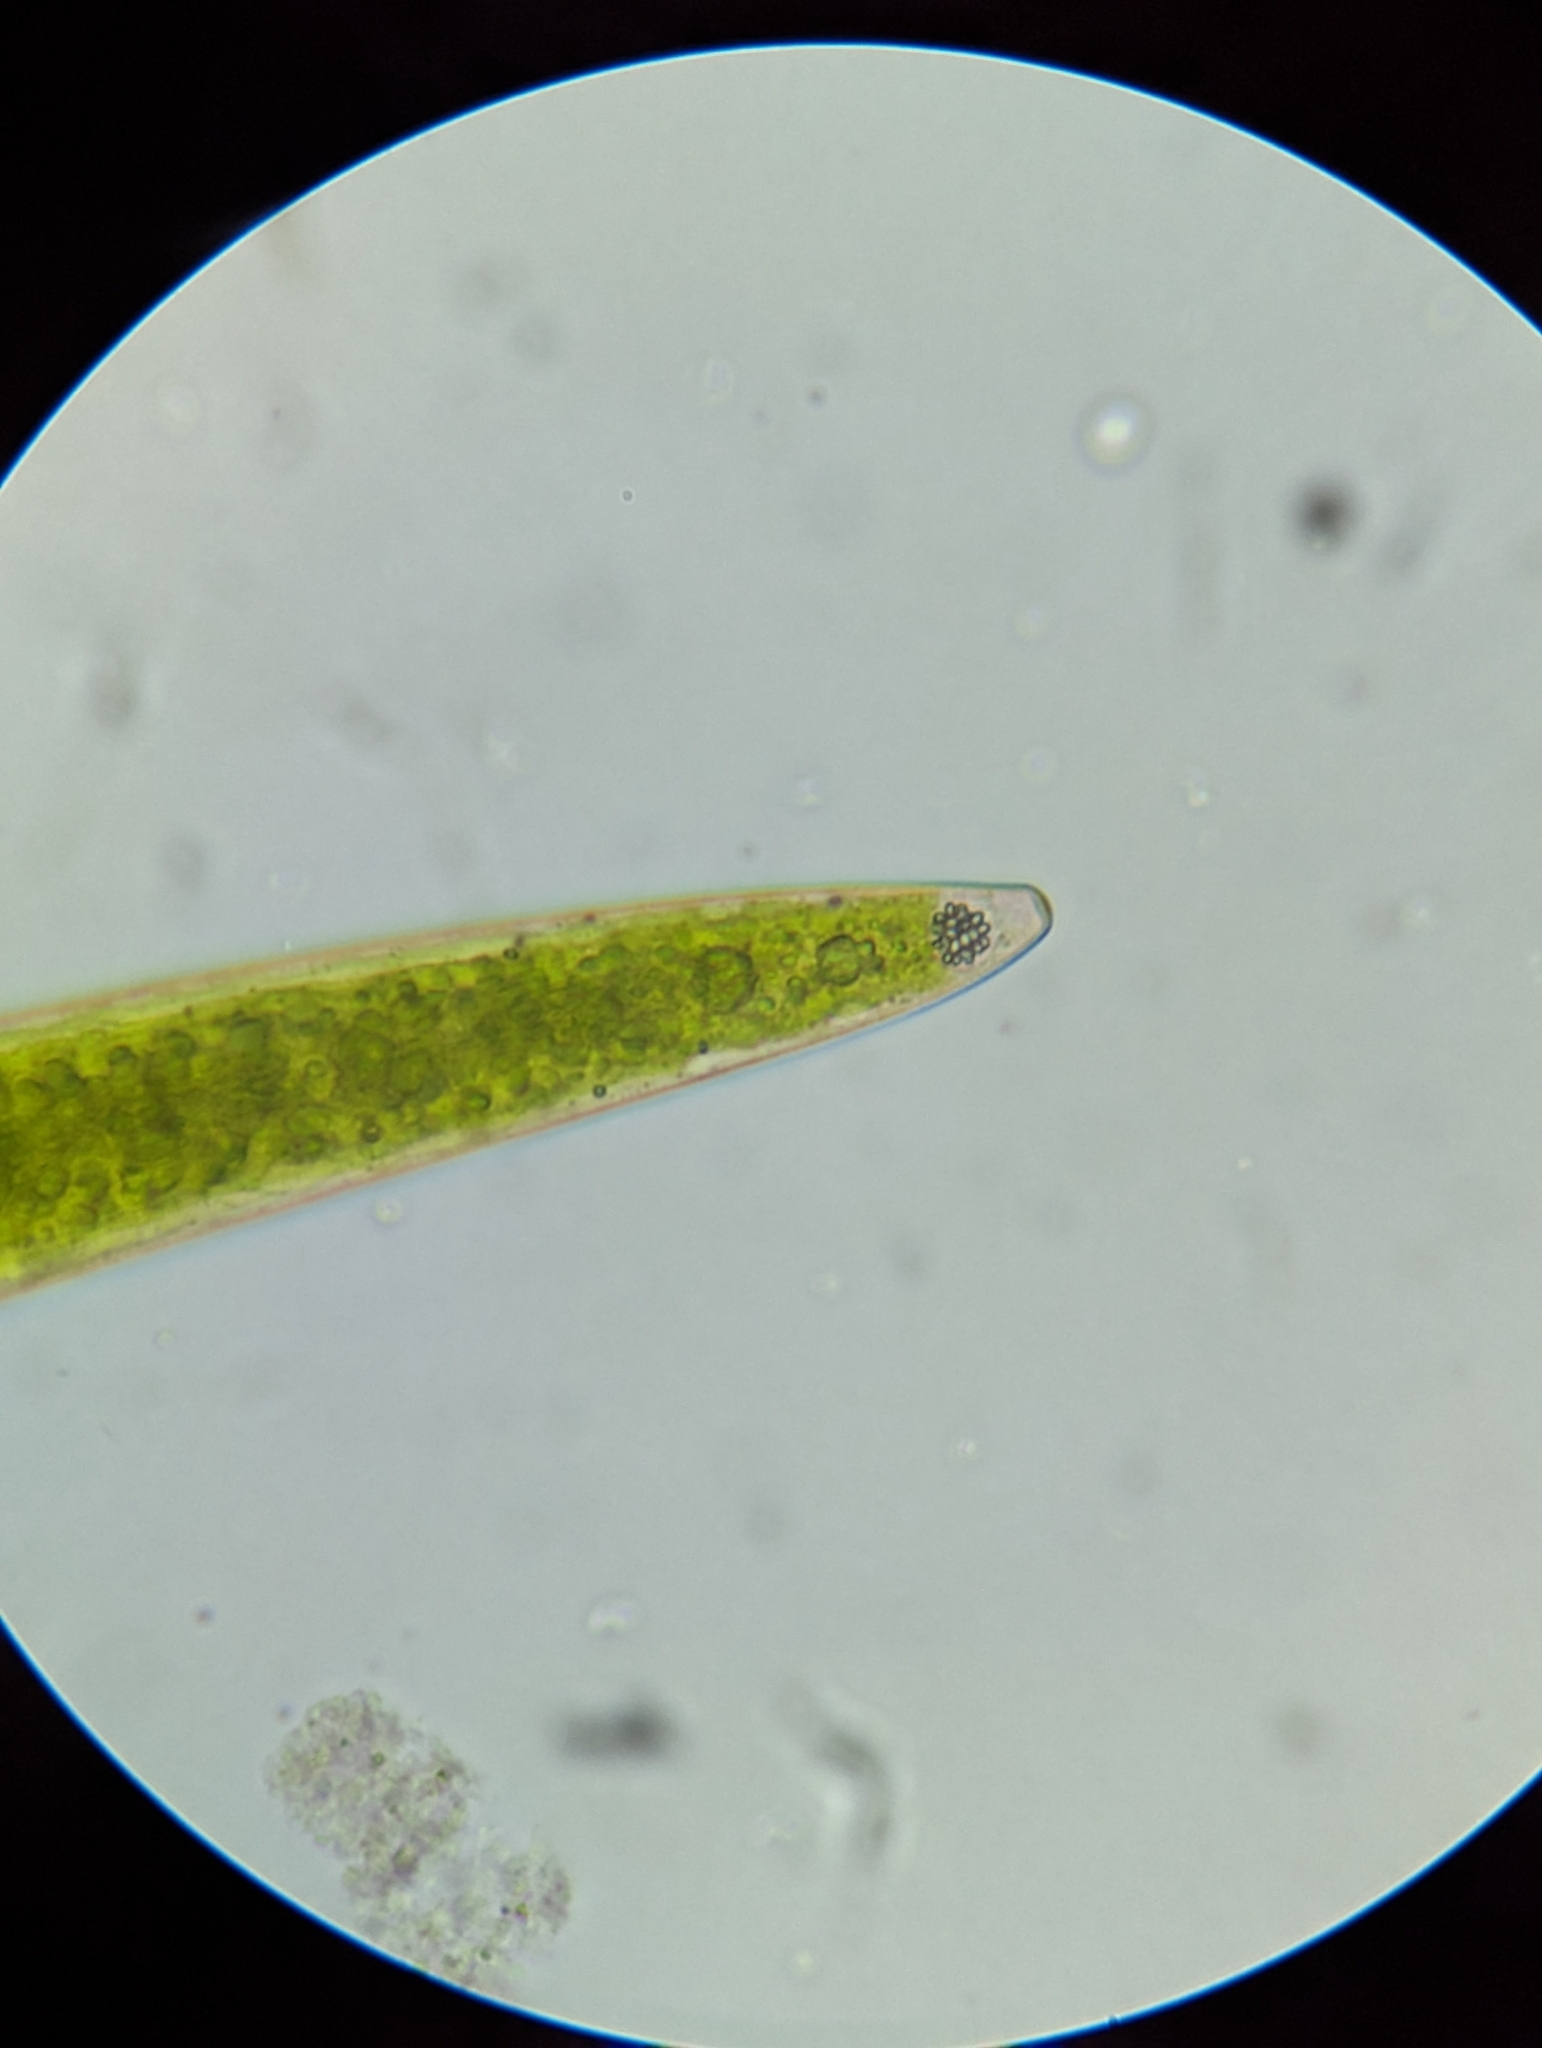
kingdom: Plantae
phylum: Charophyta
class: Zygnematophyceae
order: Zygnematales
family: Closteriaceae
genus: Closterium
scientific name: Closterium acerosum
